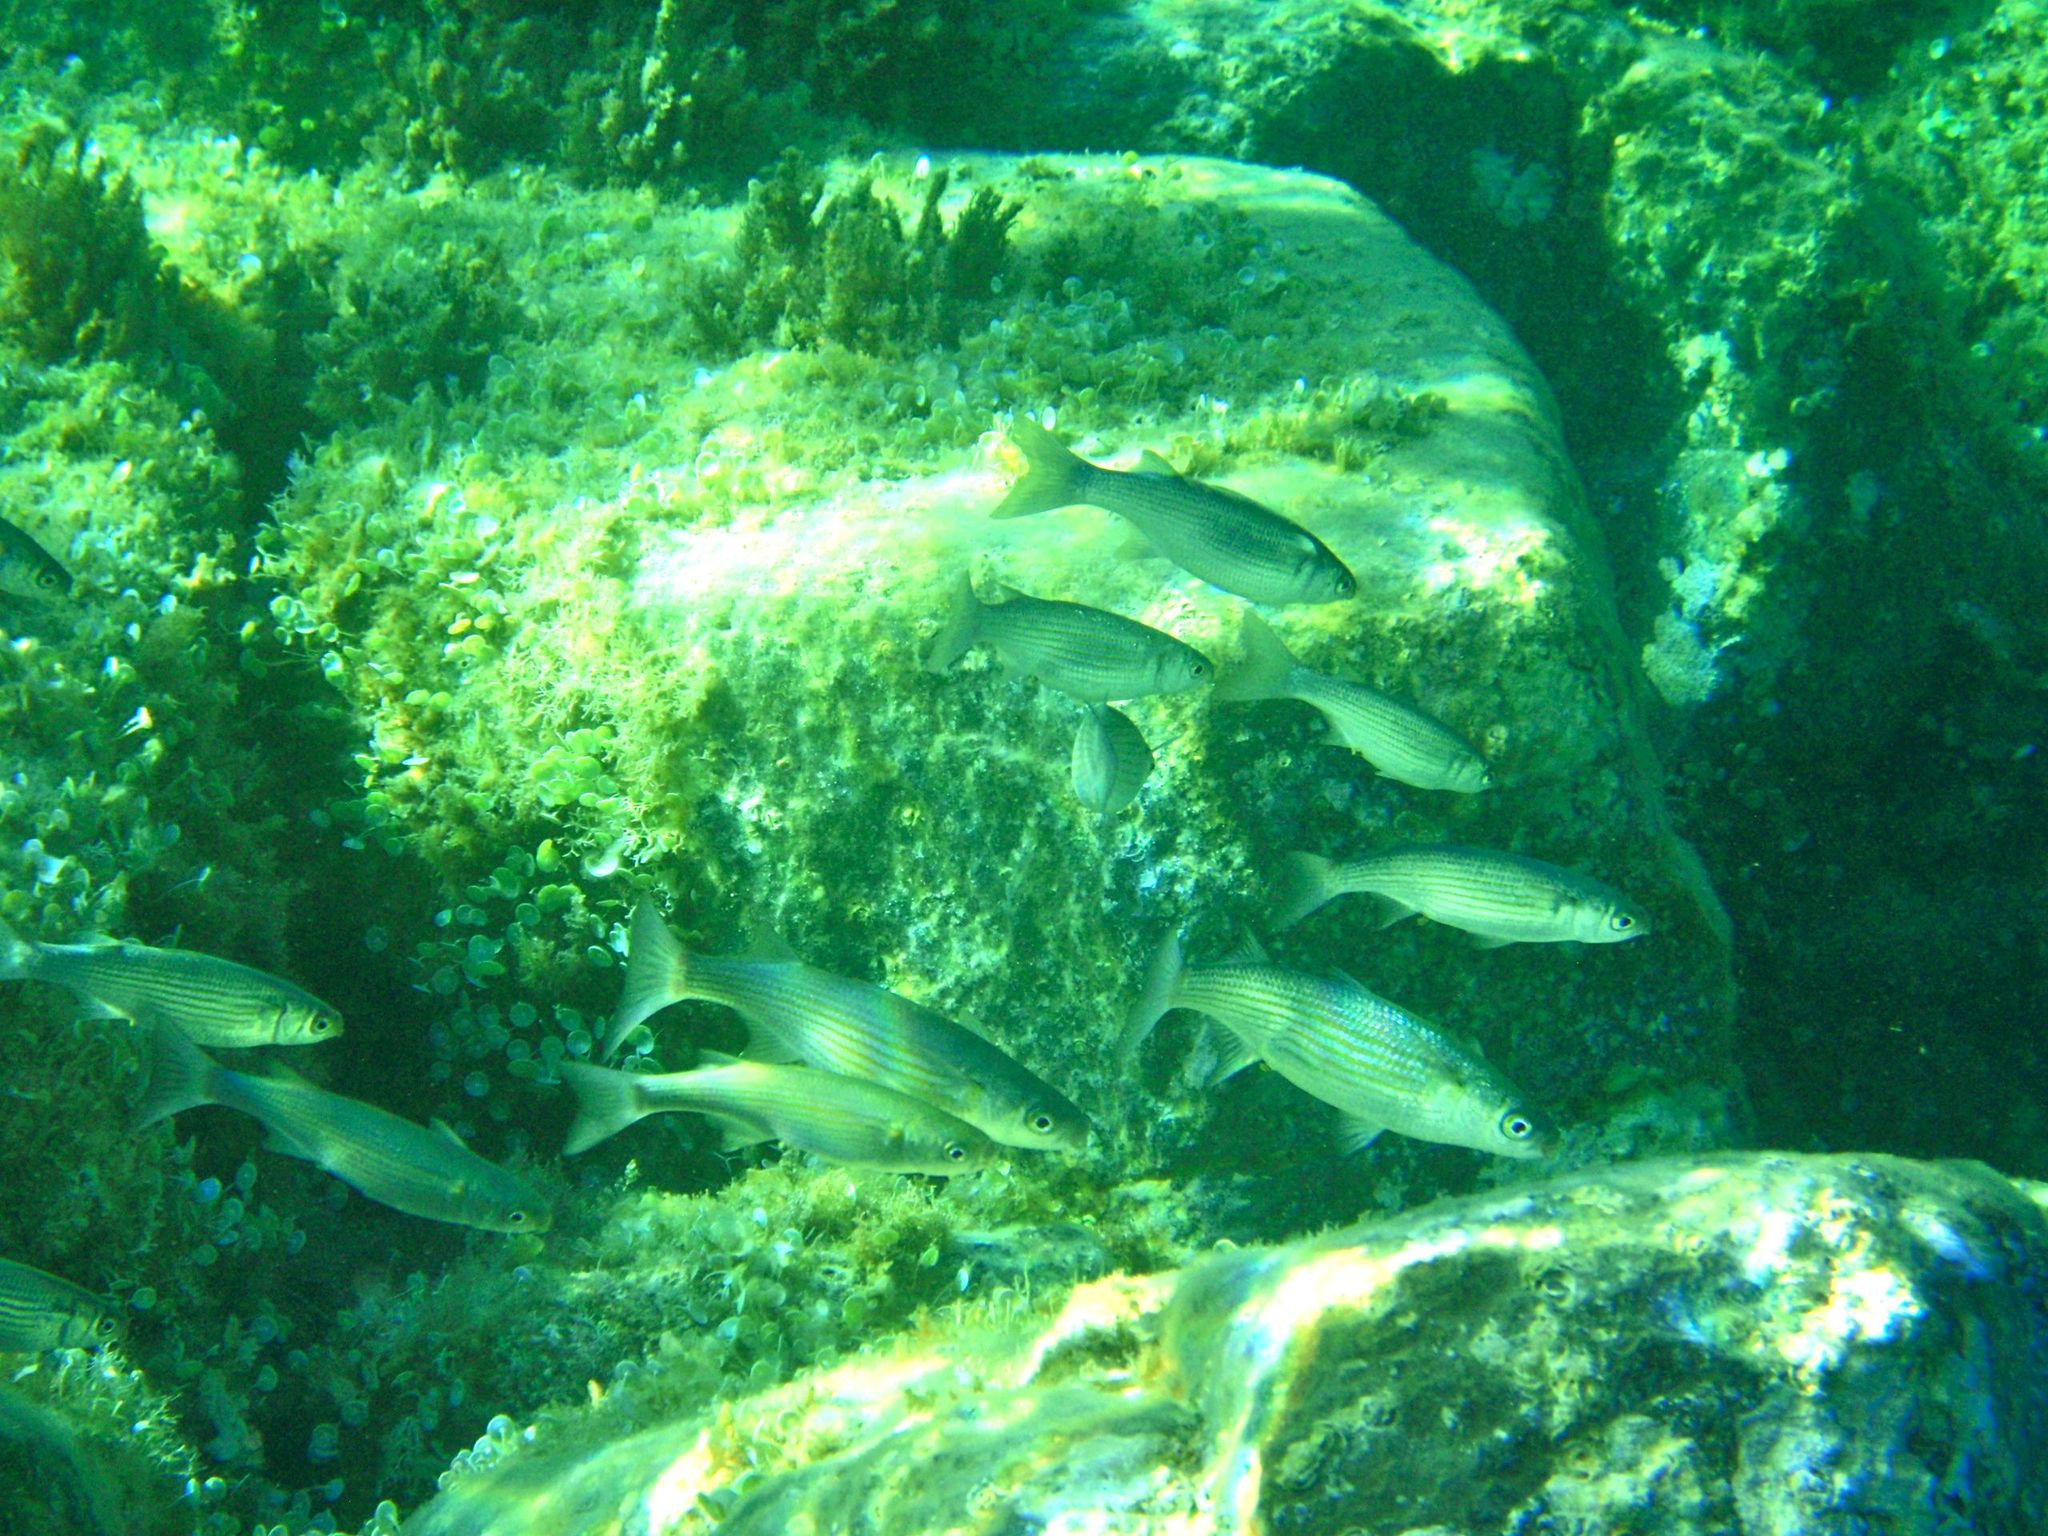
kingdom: Animalia
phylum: Chordata
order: Mugiliformes
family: Mugilidae
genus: Oedalechilus
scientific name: Oedalechilus labeo
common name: Boxlip mullet
